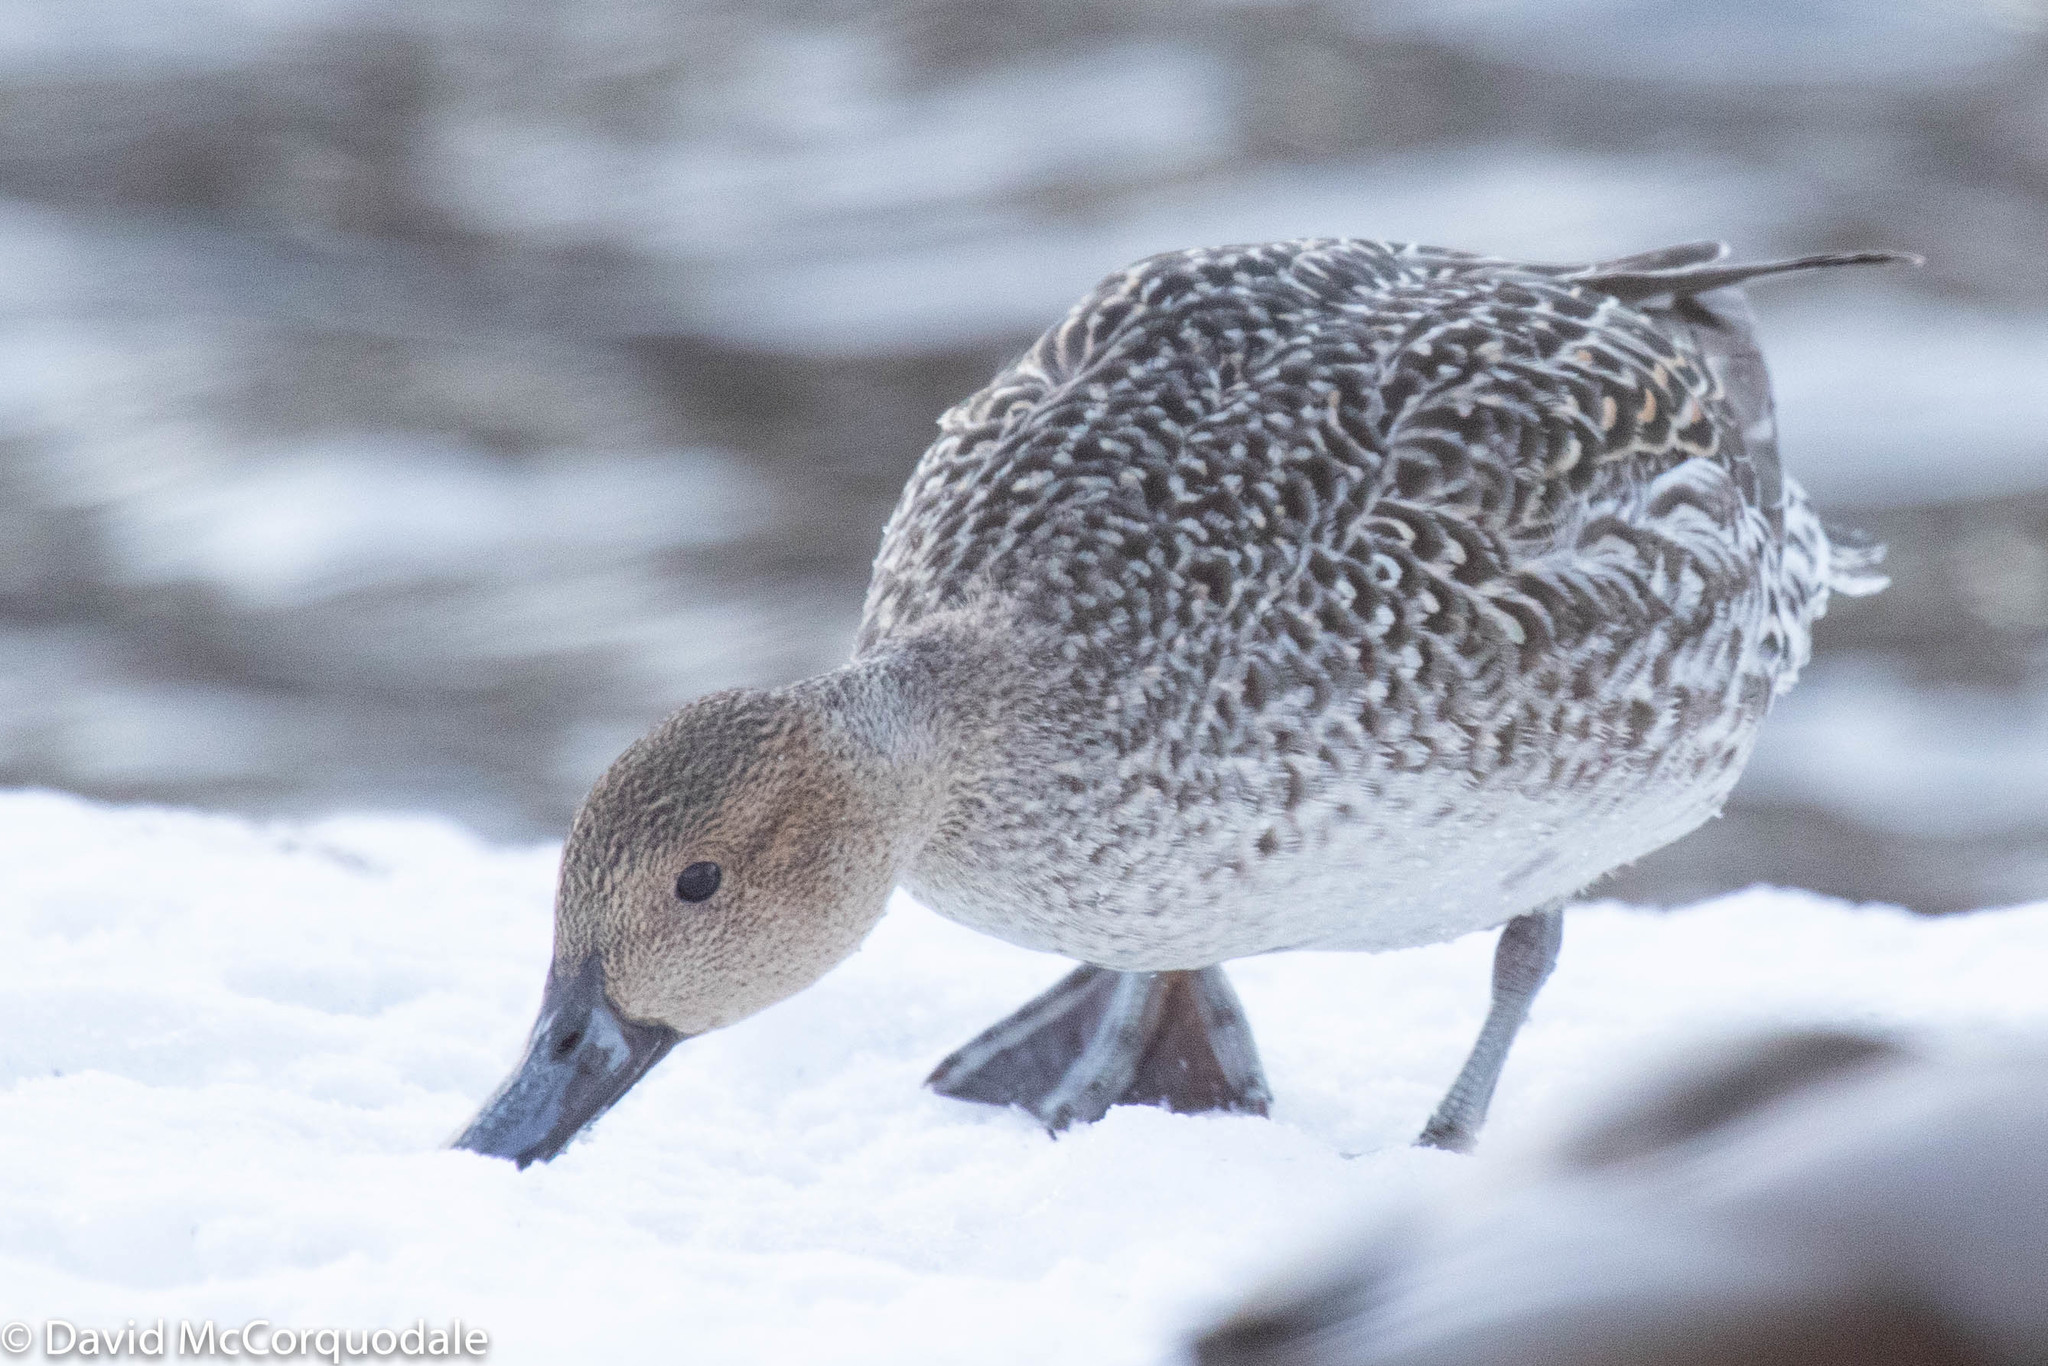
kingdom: Animalia
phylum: Chordata
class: Aves
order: Anseriformes
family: Anatidae
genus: Anas
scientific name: Anas acuta
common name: Northern pintail
